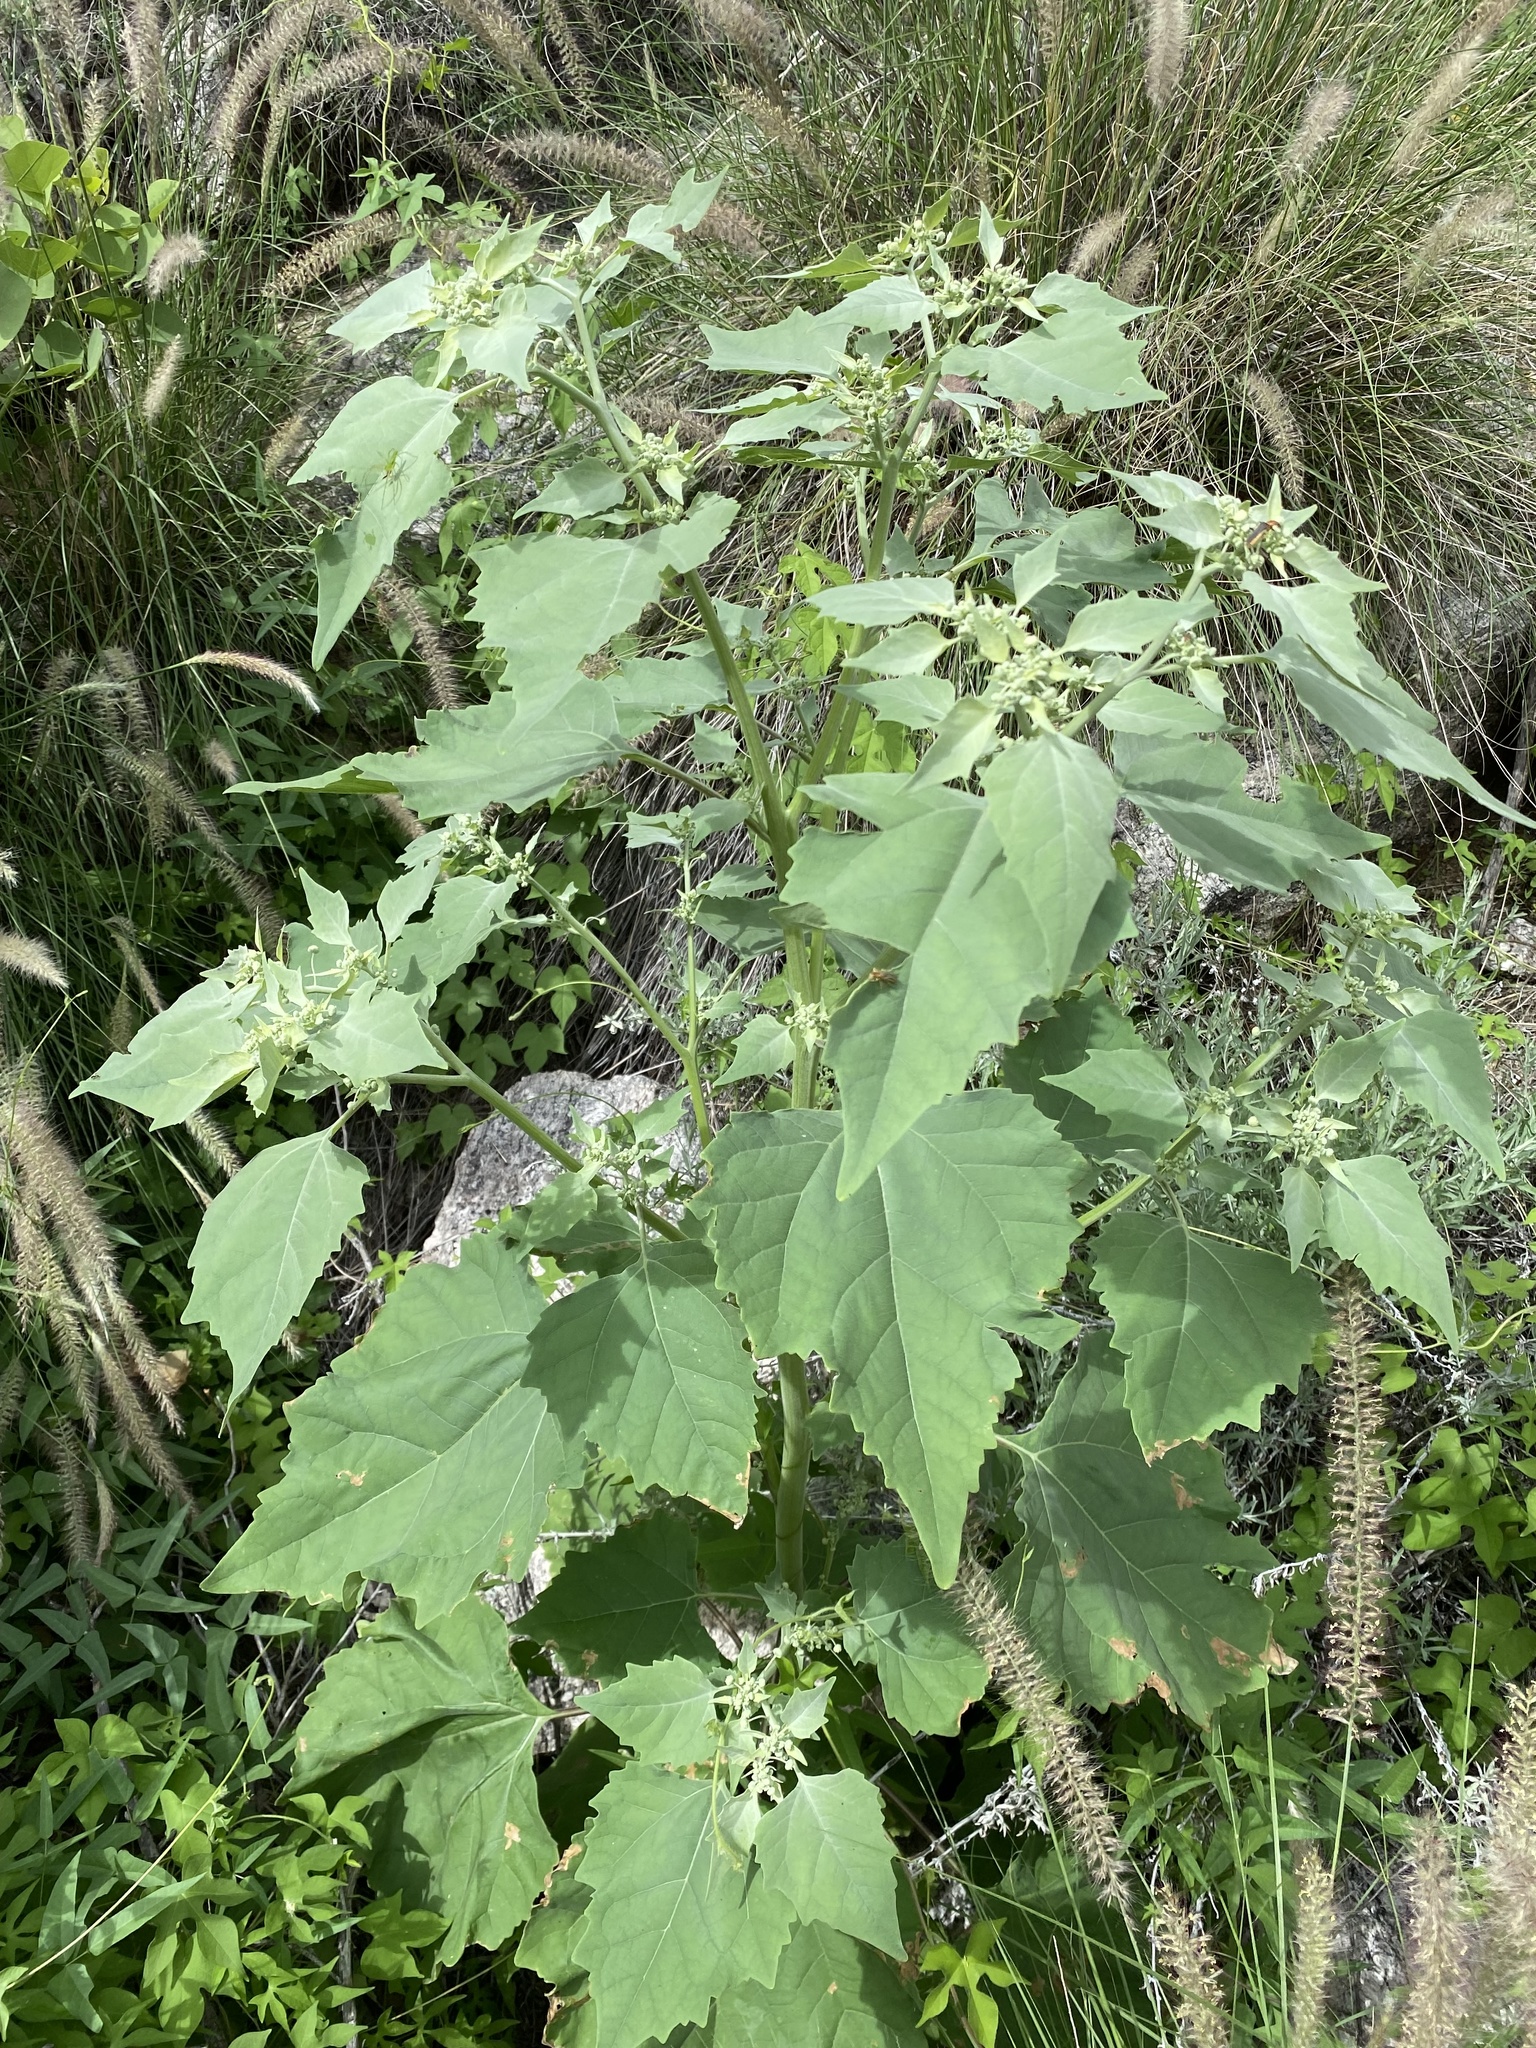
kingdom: Plantae
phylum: Tracheophyta
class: Magnoliopsida
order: Asterales
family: Asteraceae
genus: Parthenice
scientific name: Parthenice mollis
